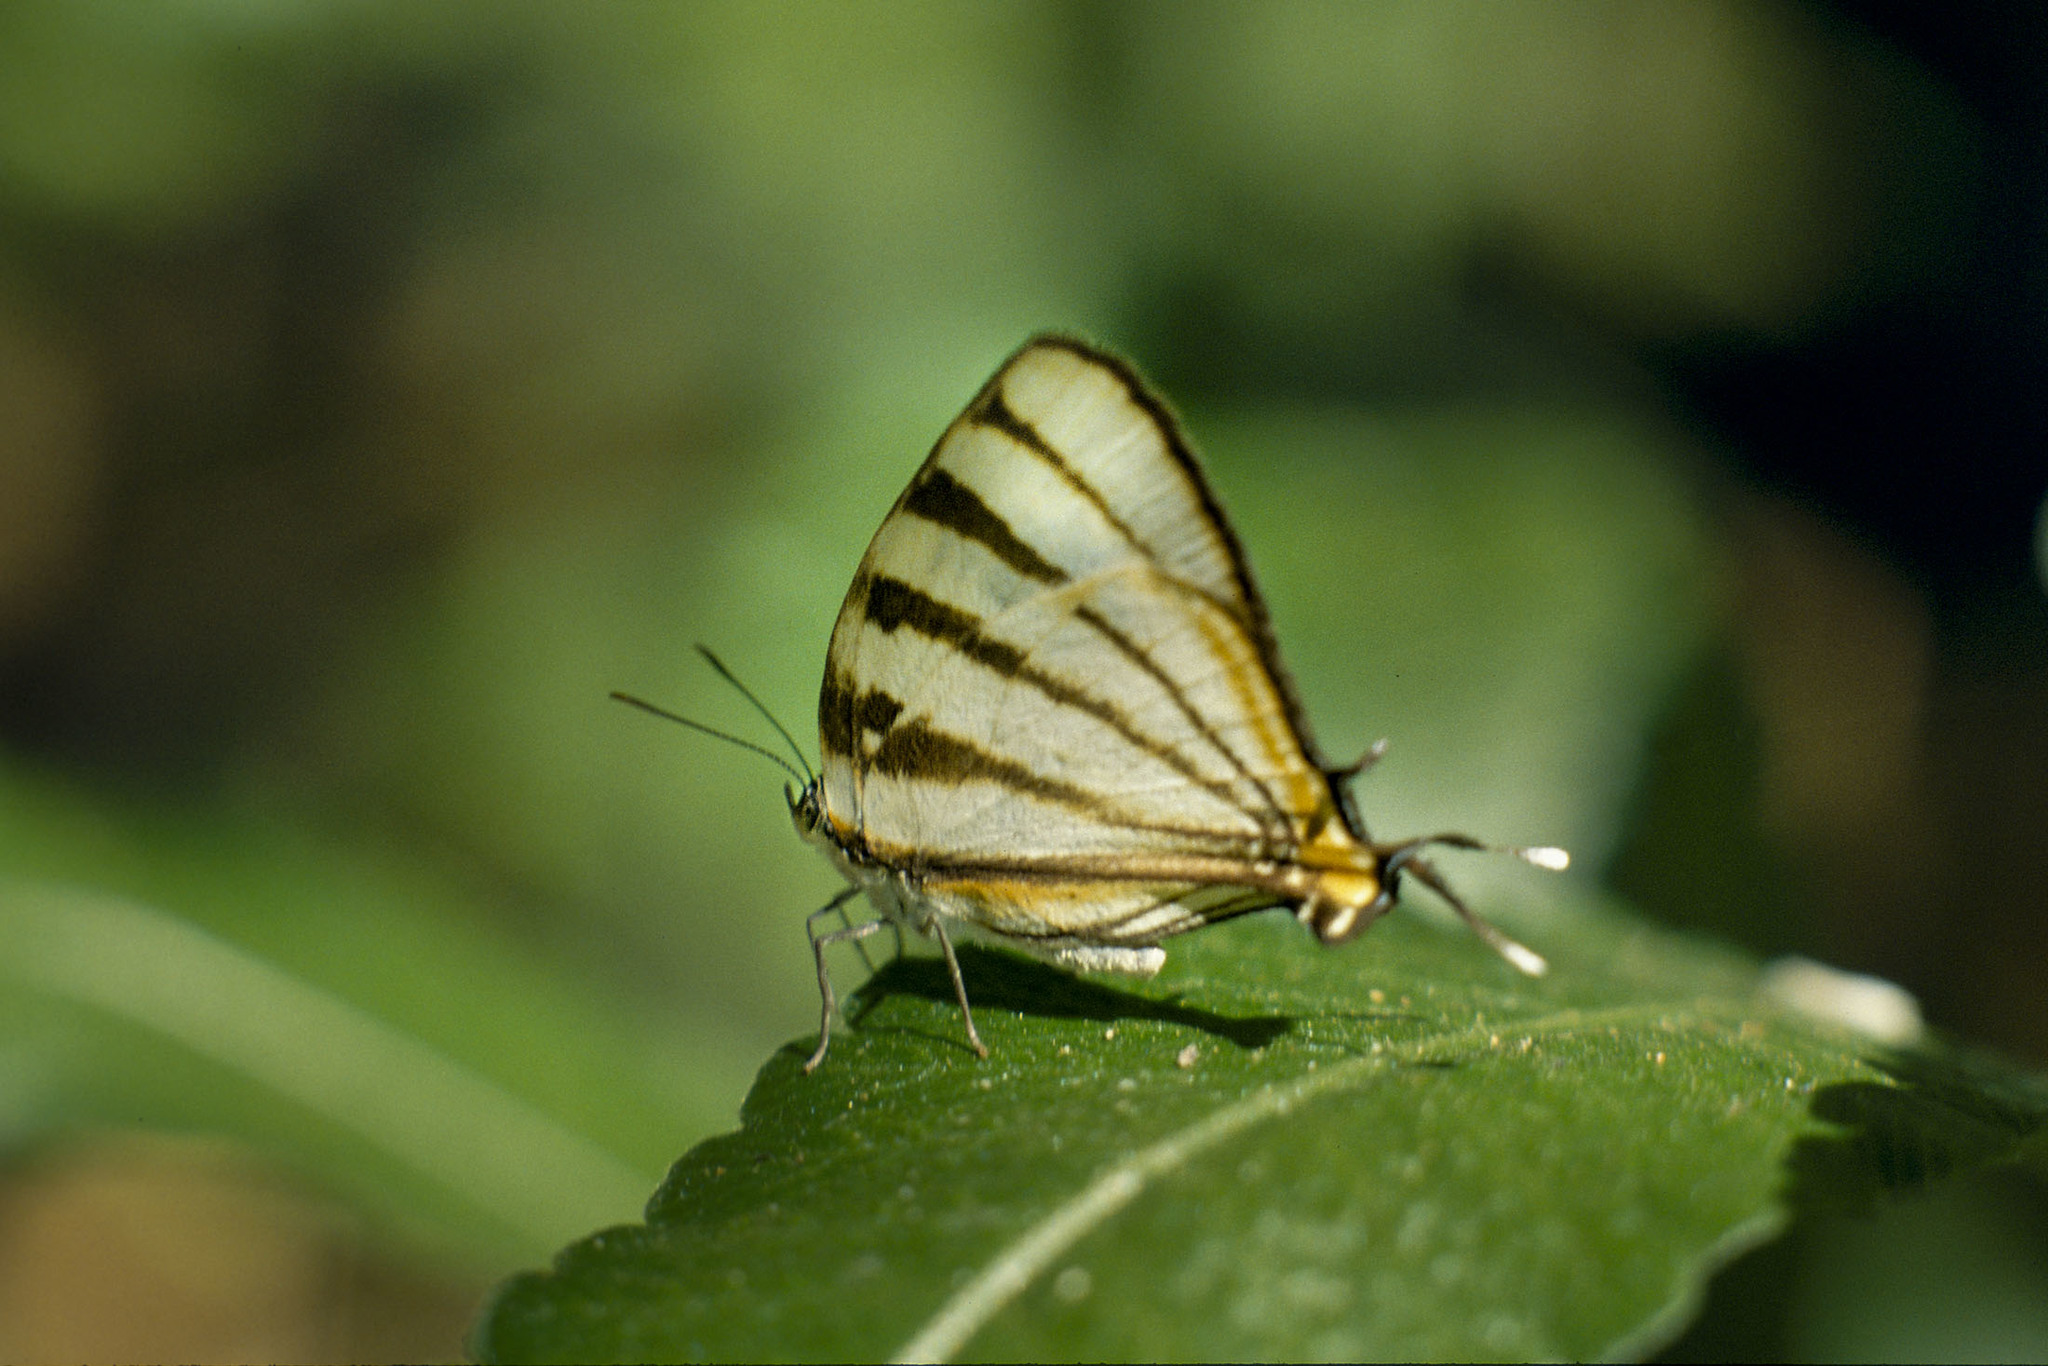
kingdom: Animalia
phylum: Arthropoda
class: Insecta
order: Lepidoptera
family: Lycaenidae
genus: Arawacus
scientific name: Arawacus togarna
